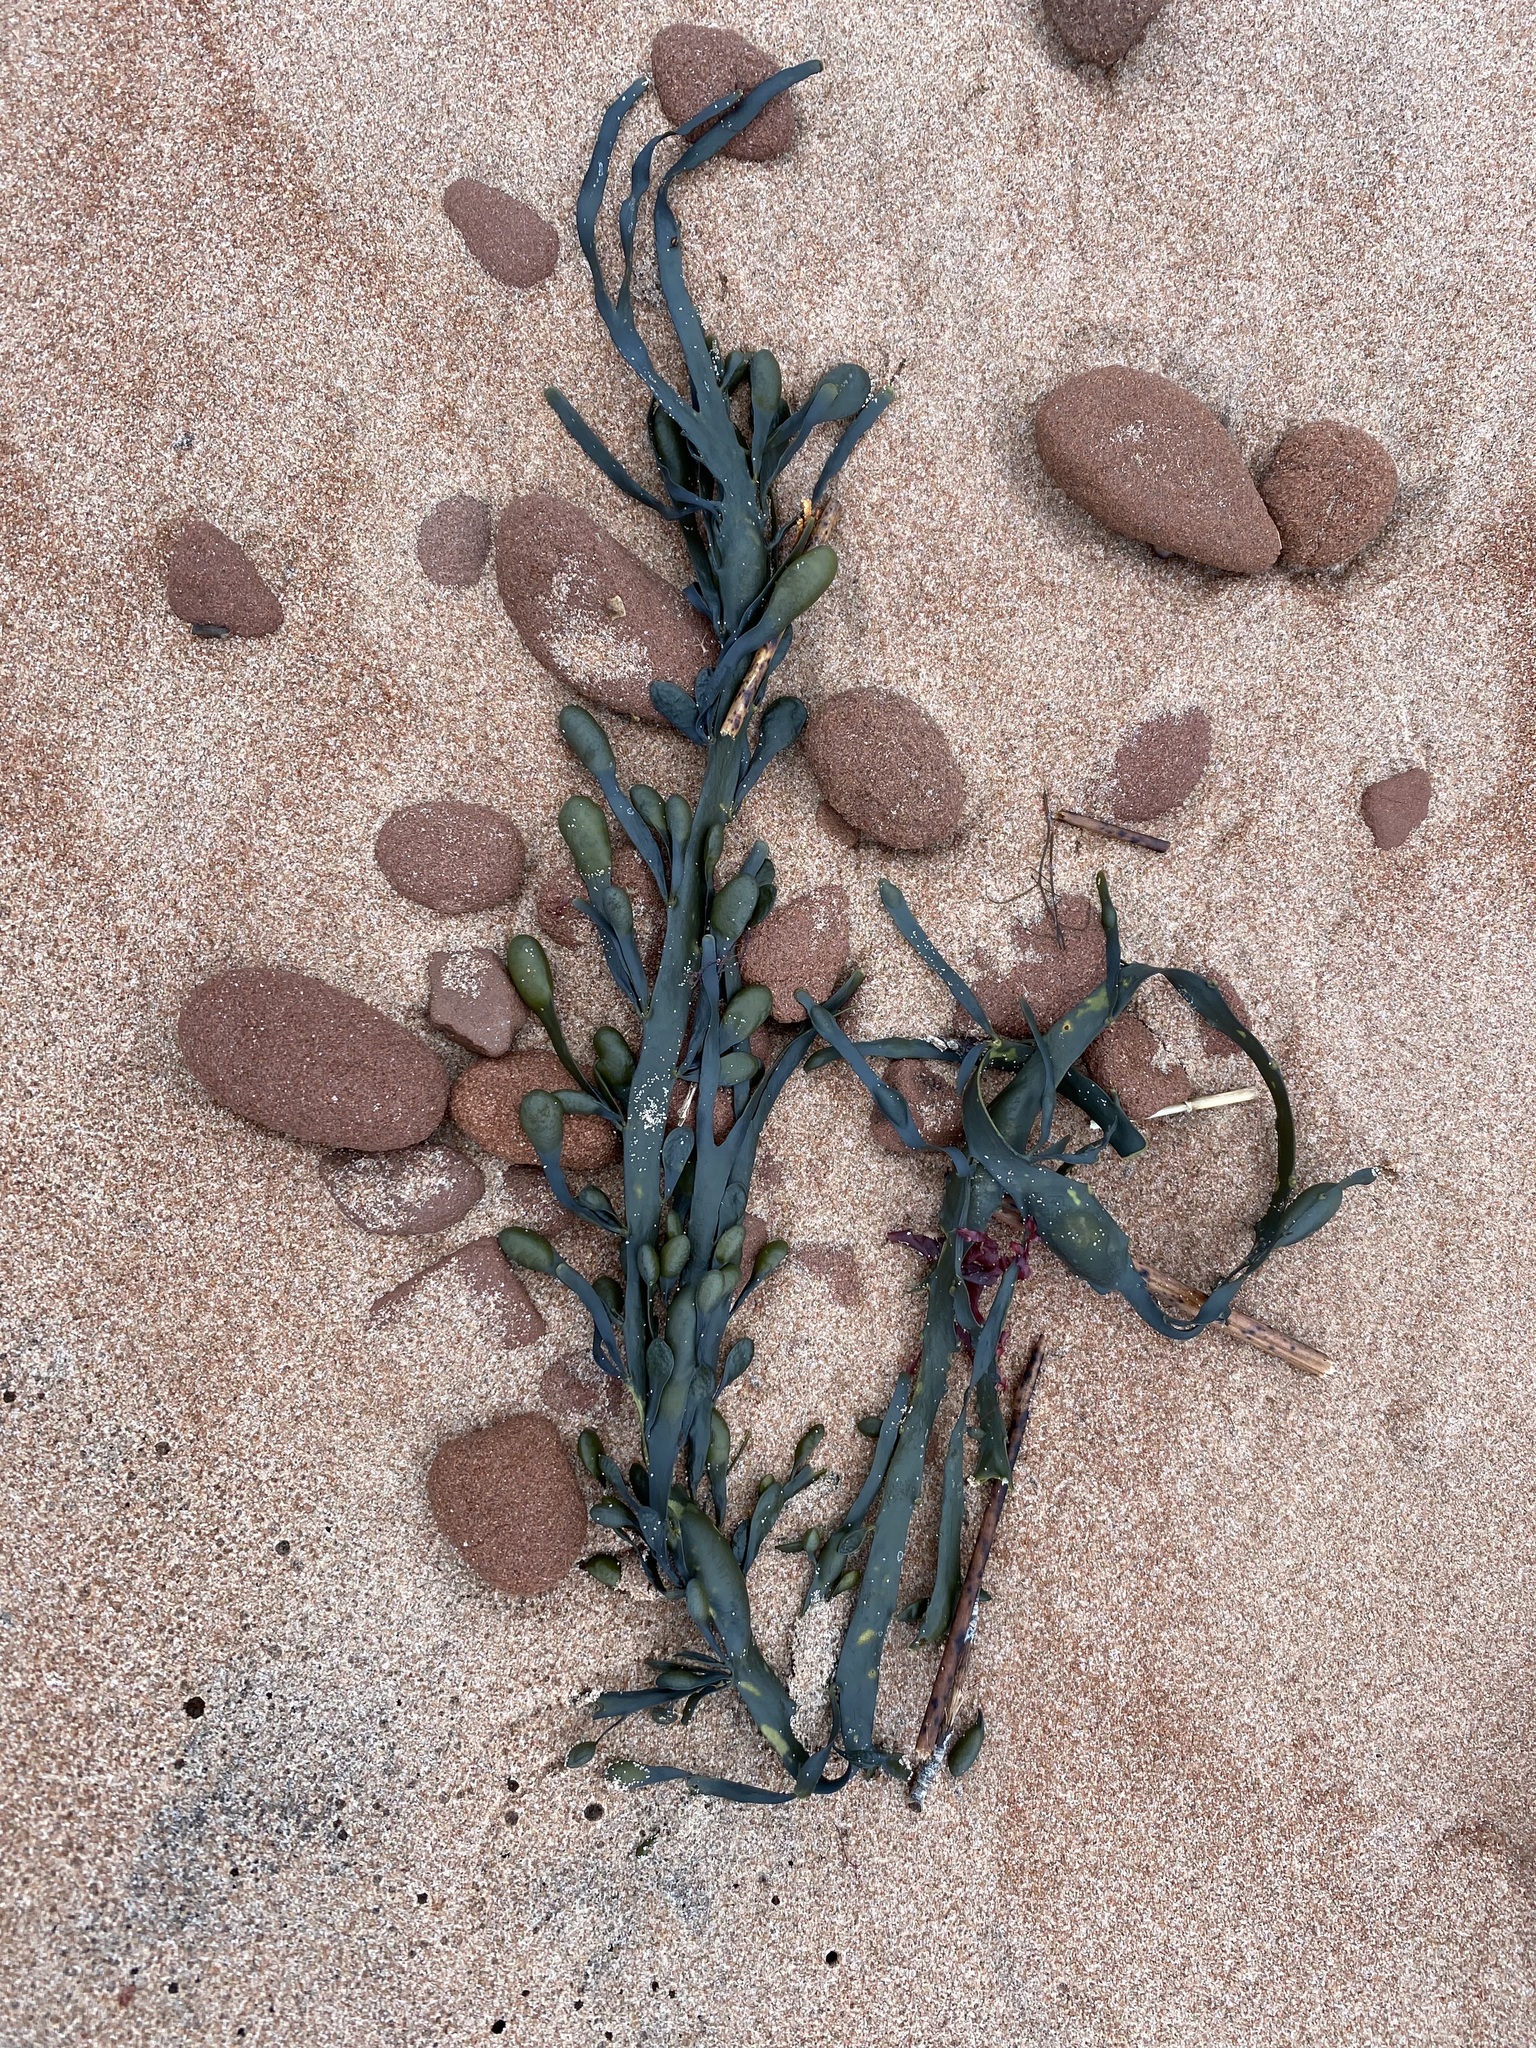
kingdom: Chromista
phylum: Ochrophyta
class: Phaeophyceae
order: Fucales
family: Fucaceae
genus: Ascophyllum
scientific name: Ascophyllum nodosum
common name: Knotted wrack
